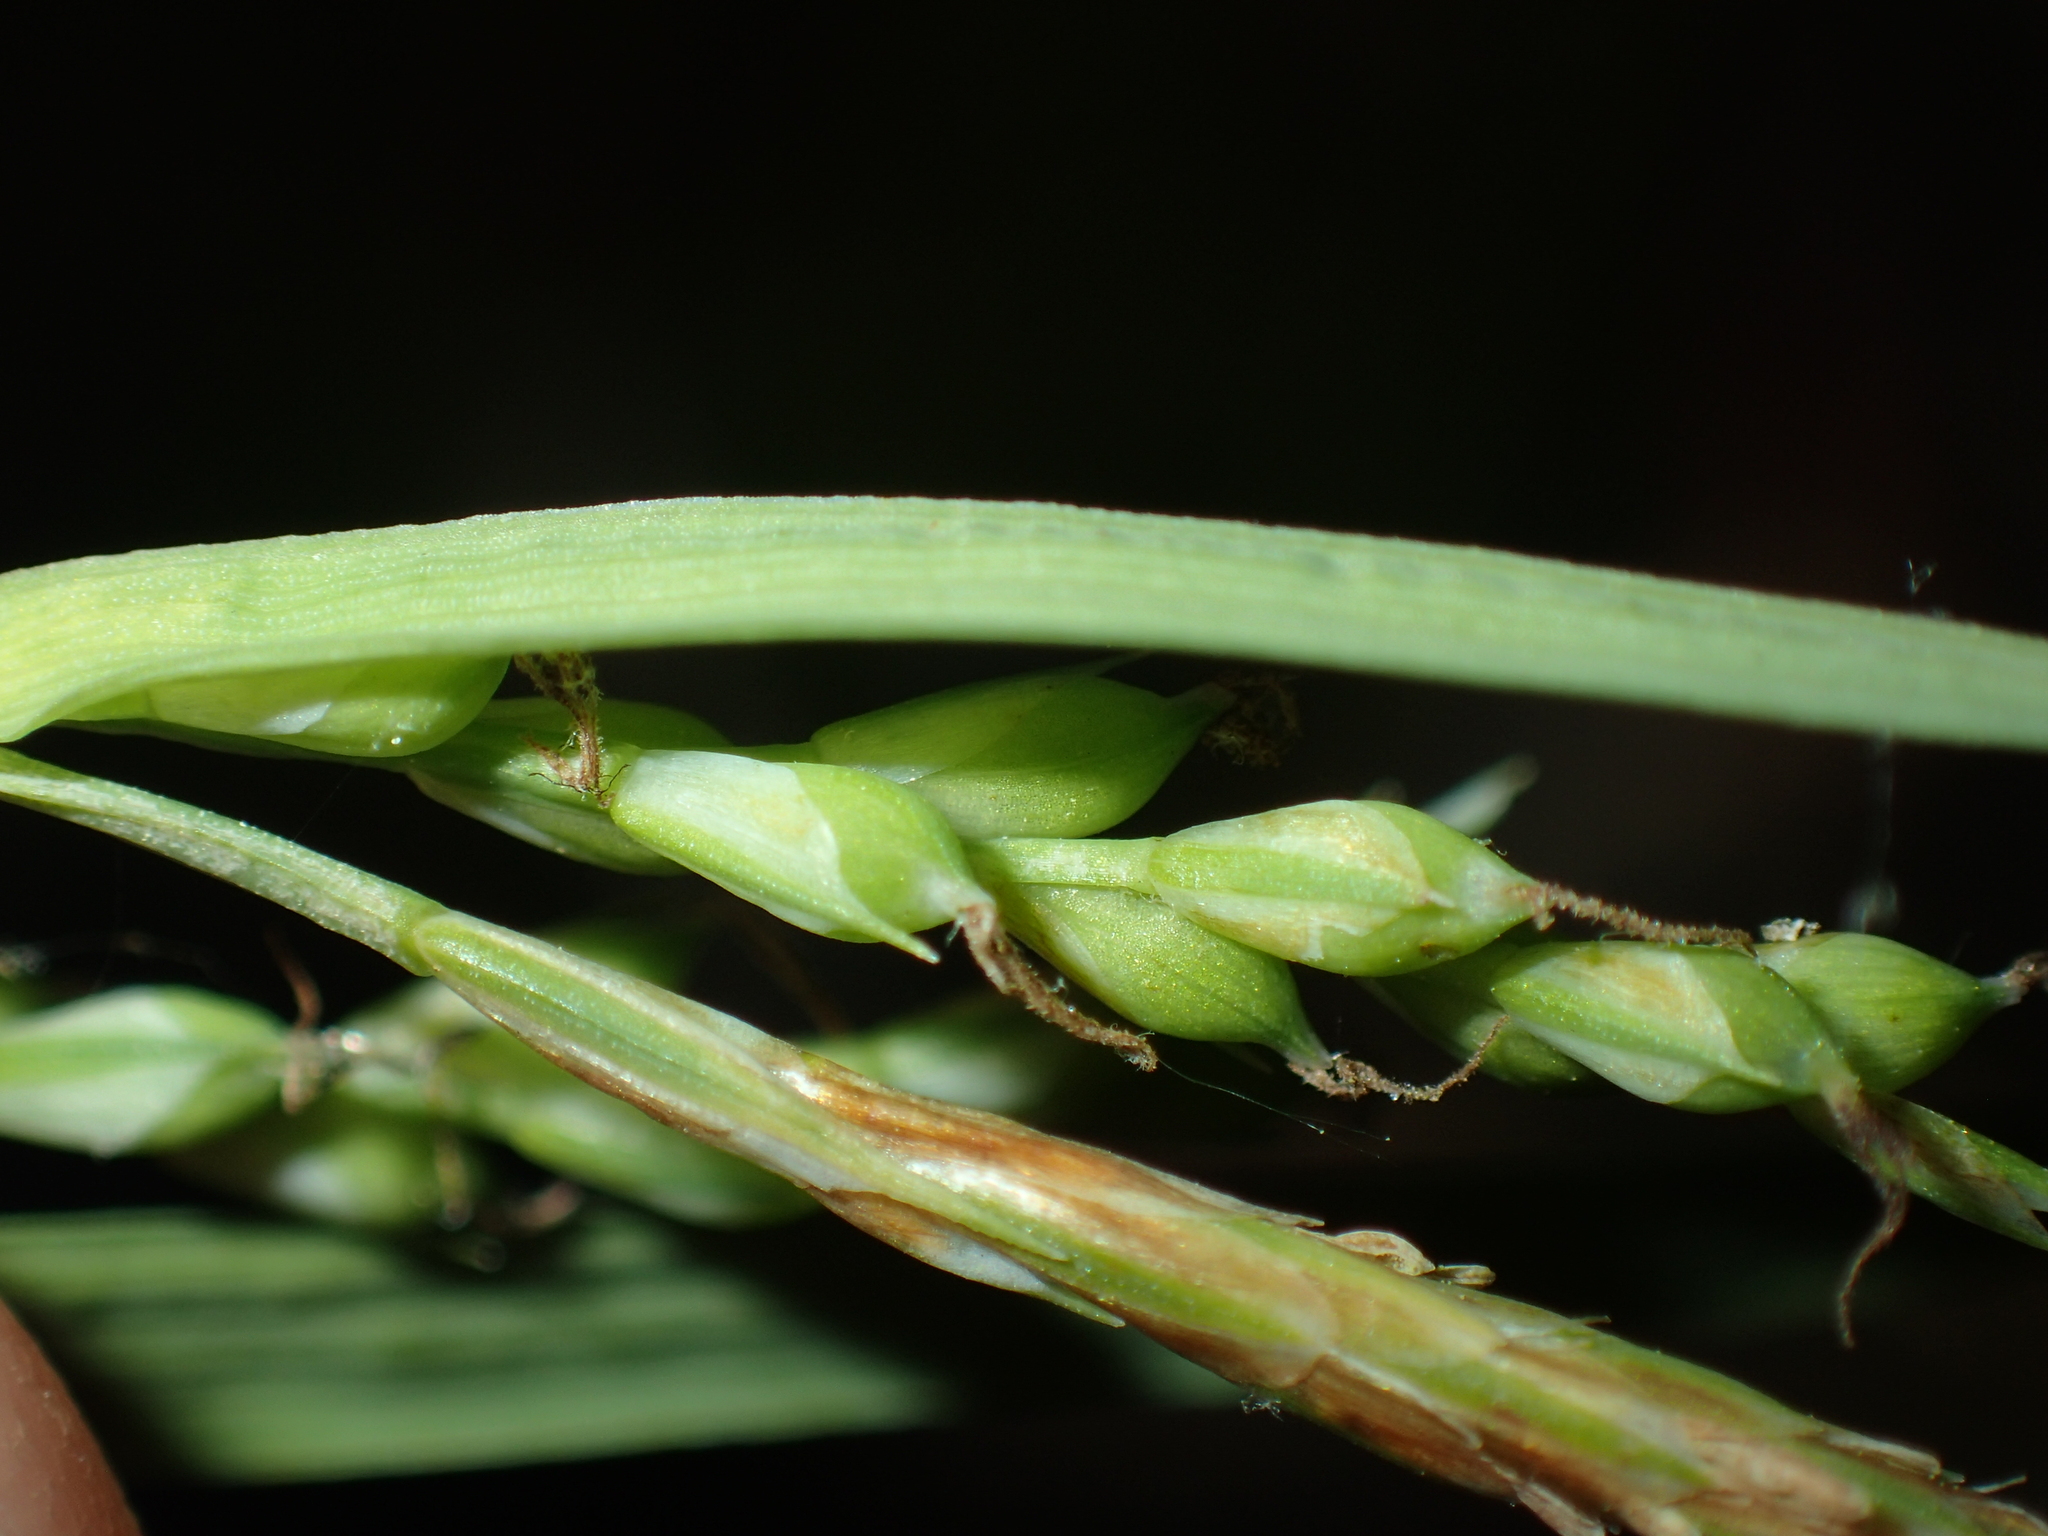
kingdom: Plantae
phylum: Tracheophyta
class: Liliopsida
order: Poales
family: Cyperaceae
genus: Carex
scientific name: Carex laxiflora
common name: Beech wood sedge
